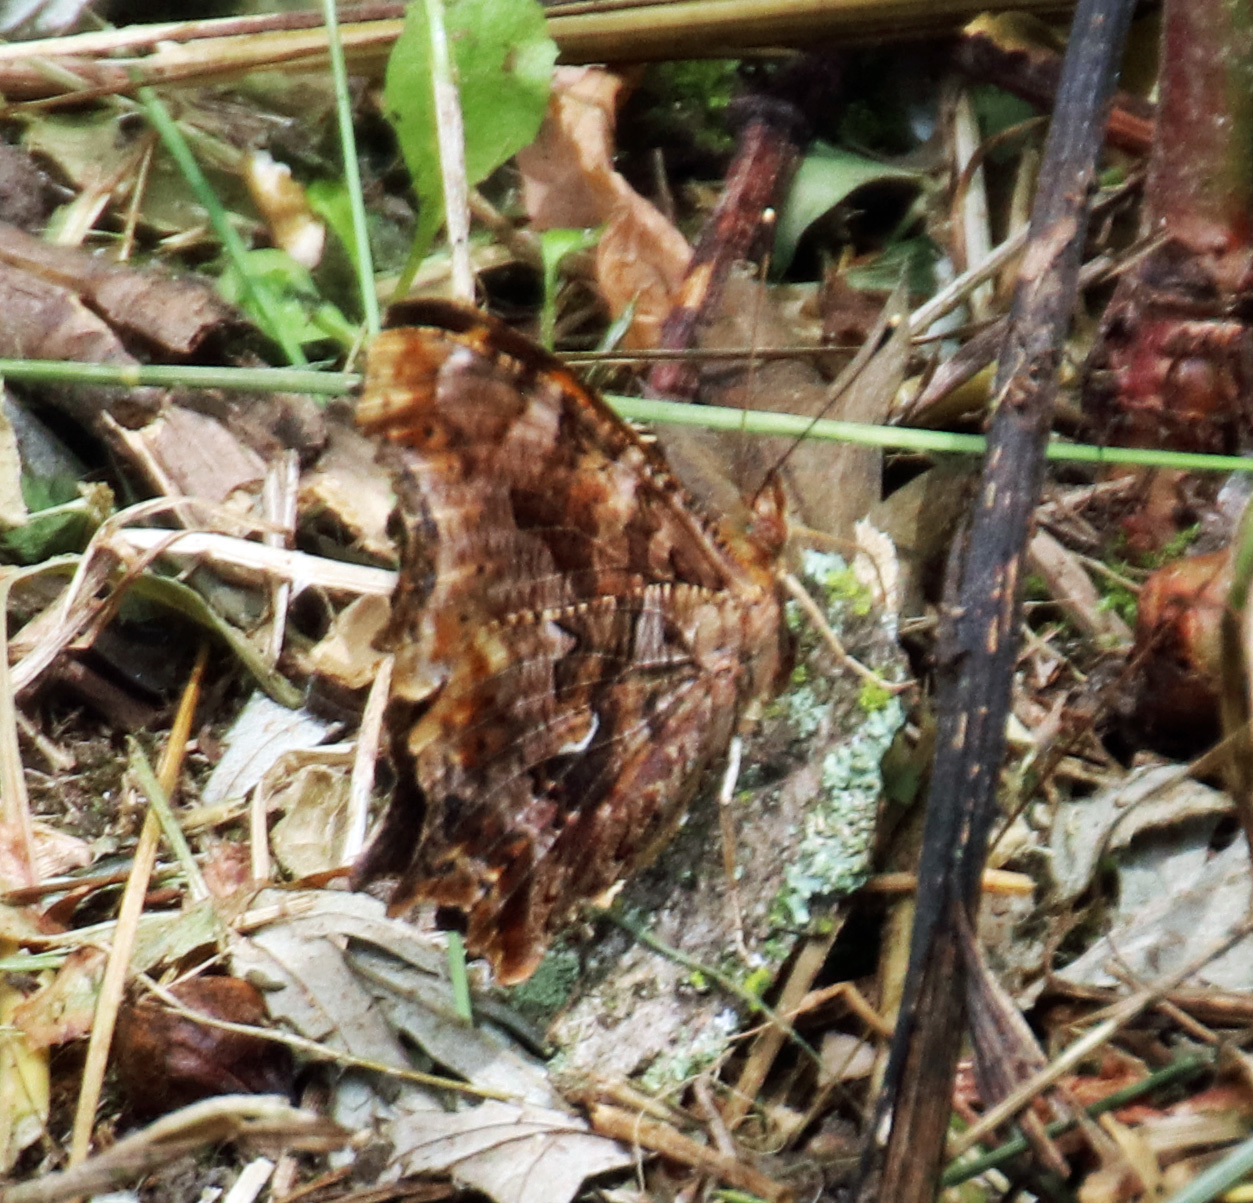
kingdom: Animalia
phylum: Arthropoda
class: Insecta
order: Lepidoptera
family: Nymphalidae
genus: Polygonia
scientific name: Polygonia comma
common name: Eastern comma
